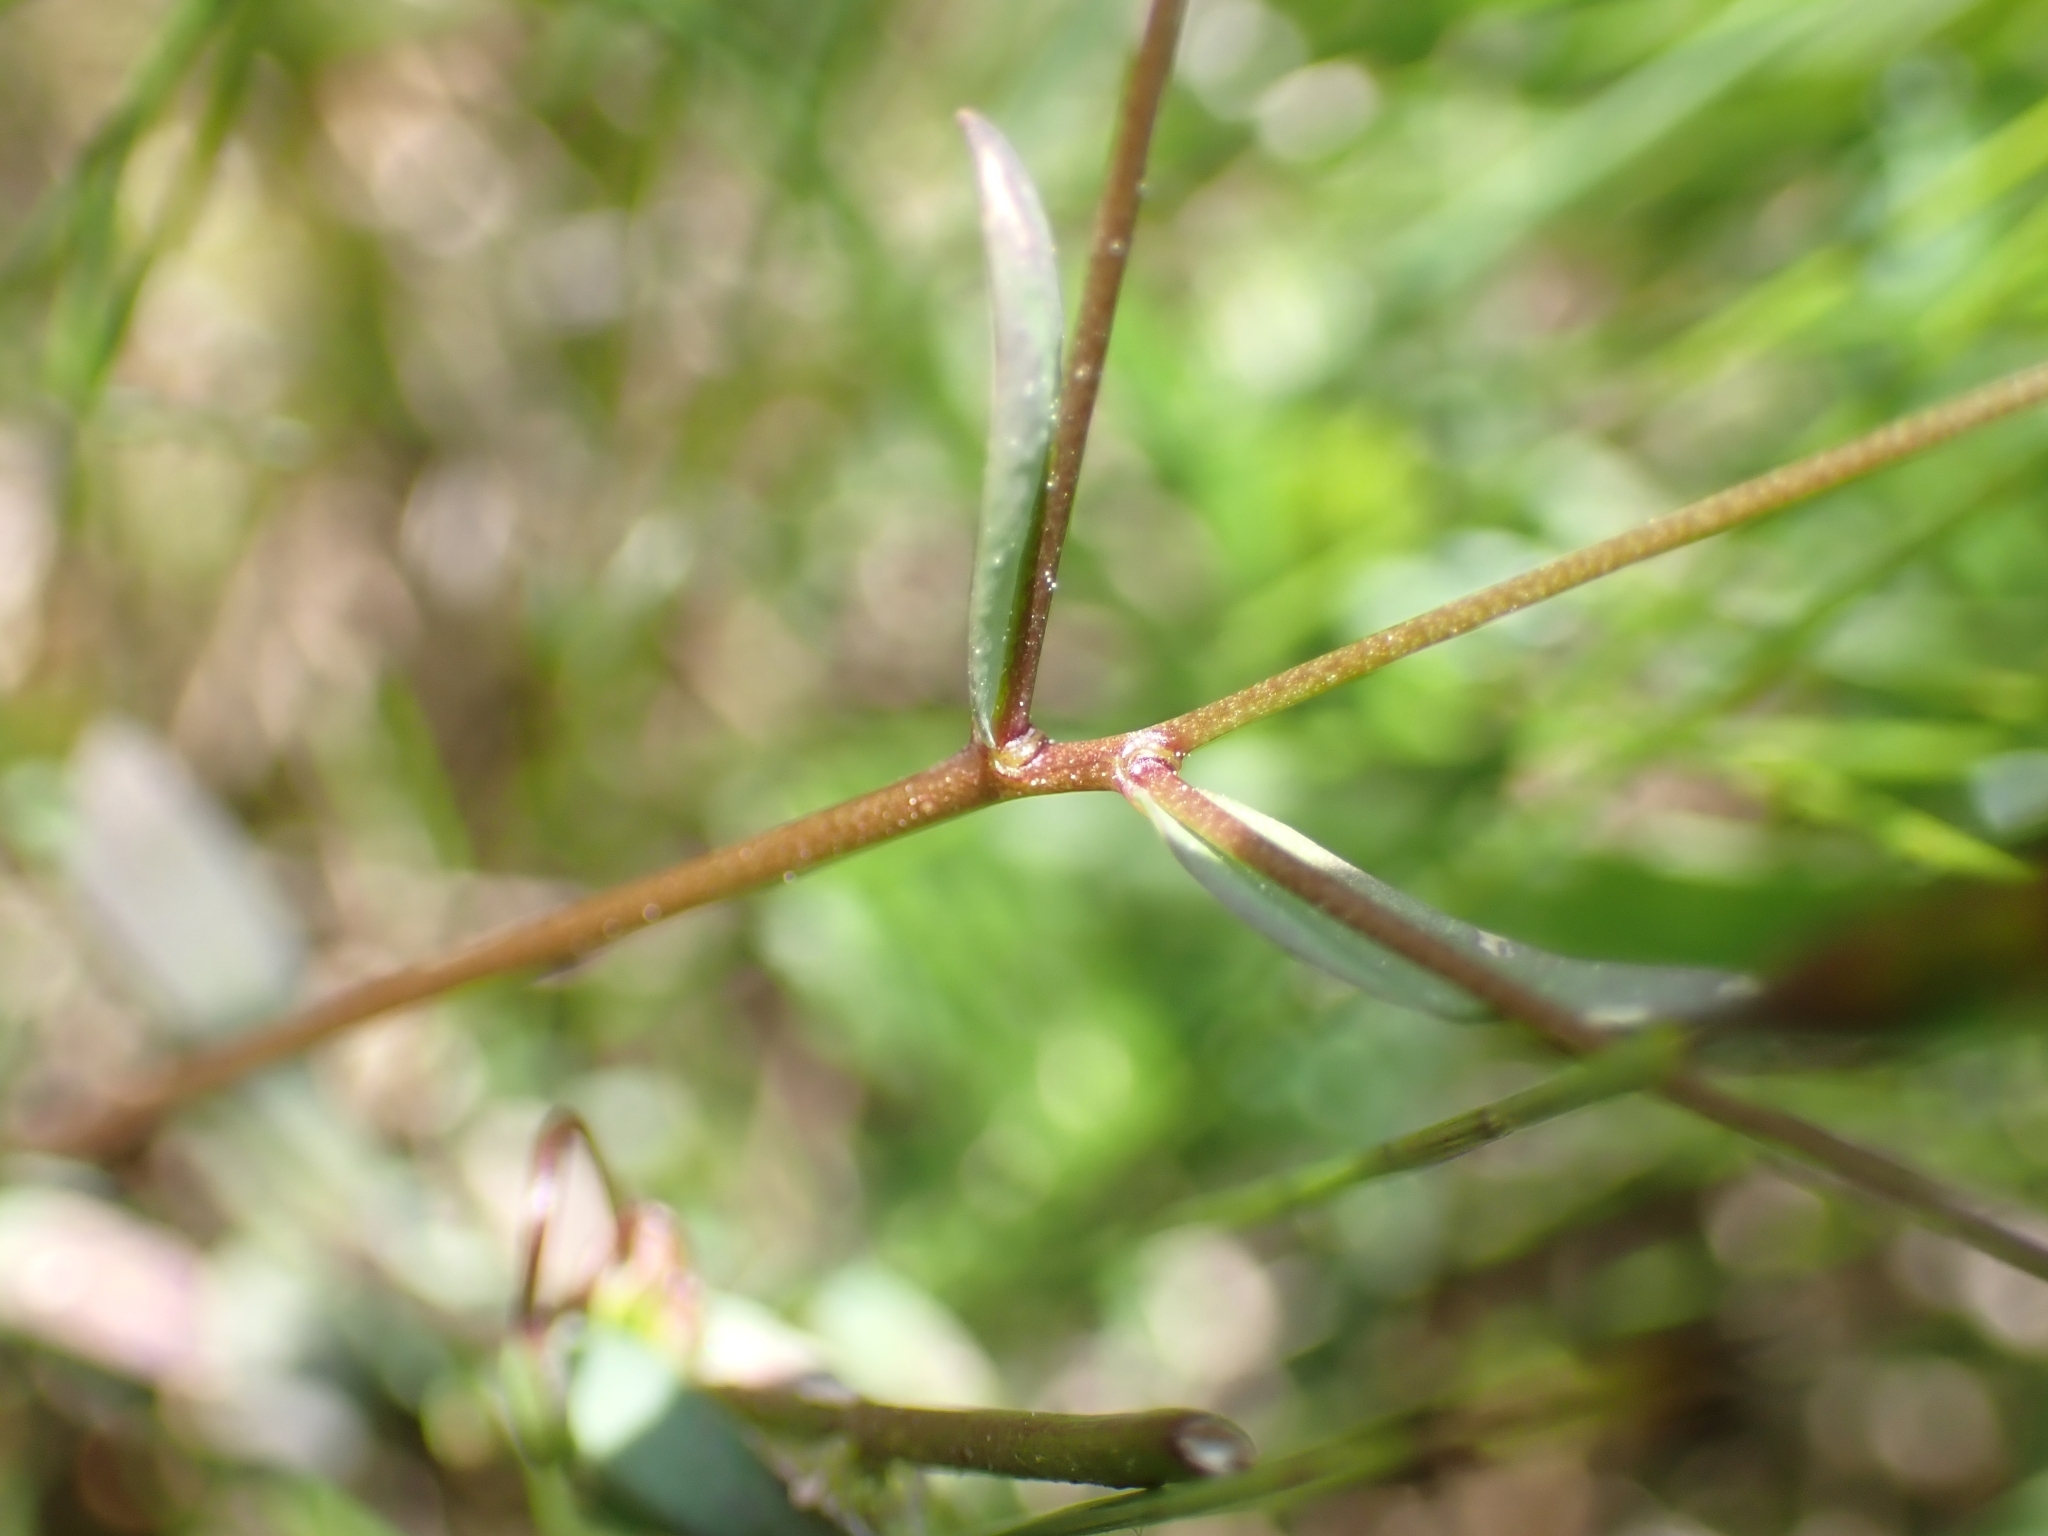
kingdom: Plantae
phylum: Tracheophyta
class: Magnoliopsida
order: Malpighiales
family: Linaceae
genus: Linum
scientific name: Linum catharticum
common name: Fairy flax
